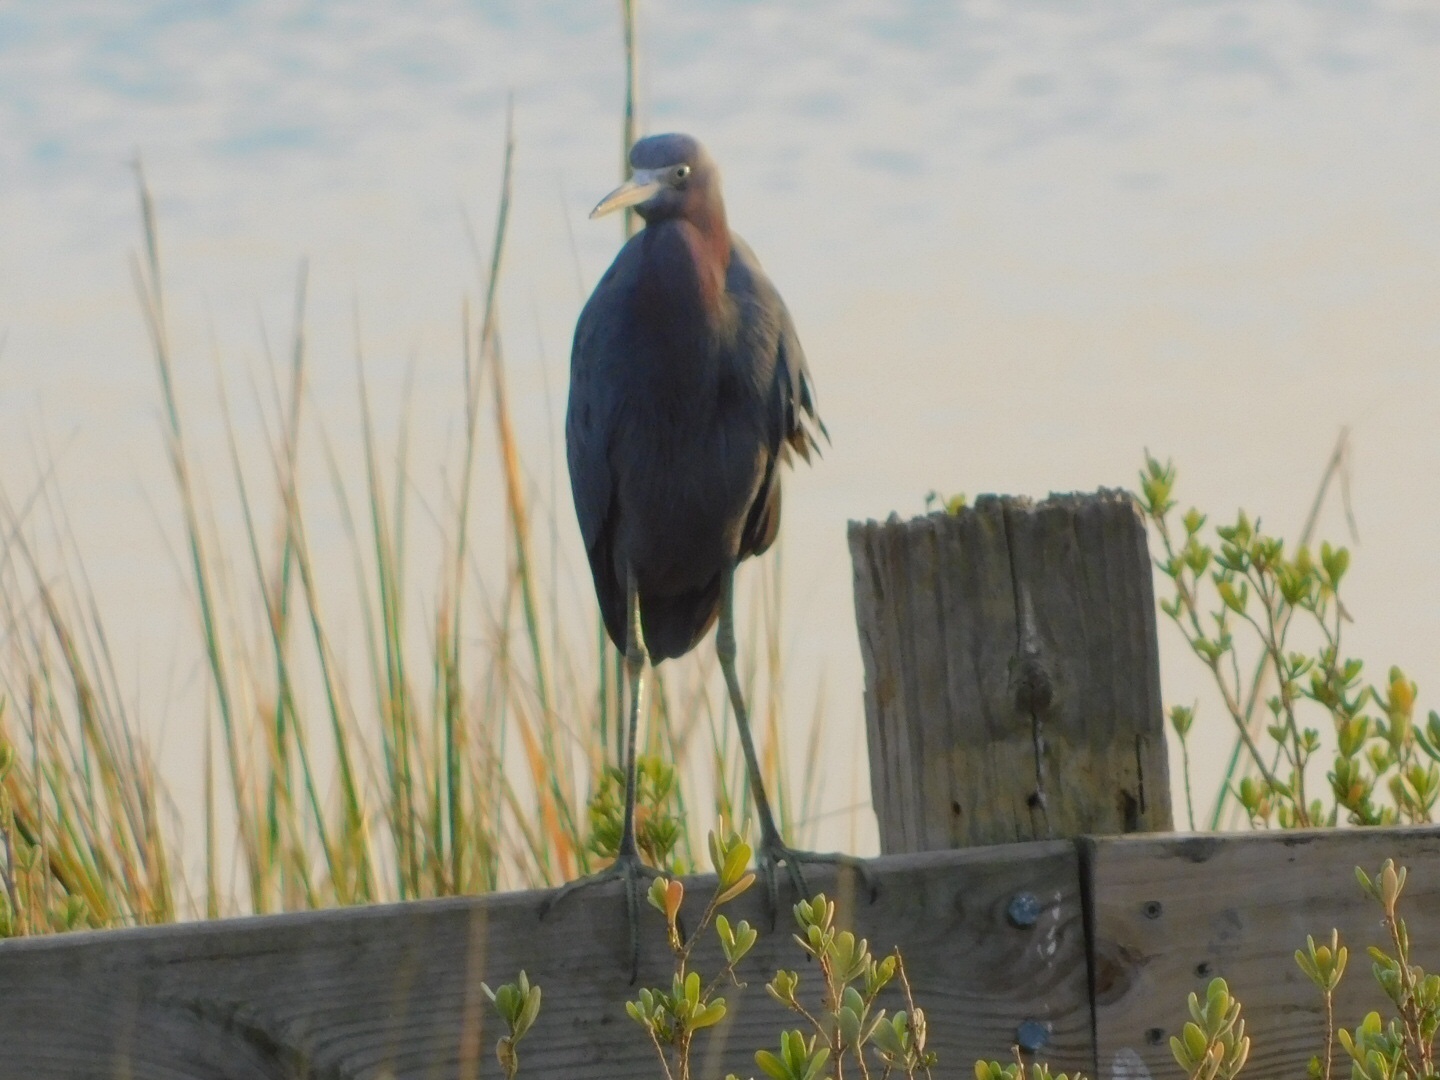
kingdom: Animalia
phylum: Chordata
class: Aves
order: Pelecaniformes
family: Ardeidae
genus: Egretta
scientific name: Egretta caerulea
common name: Little blue heron
